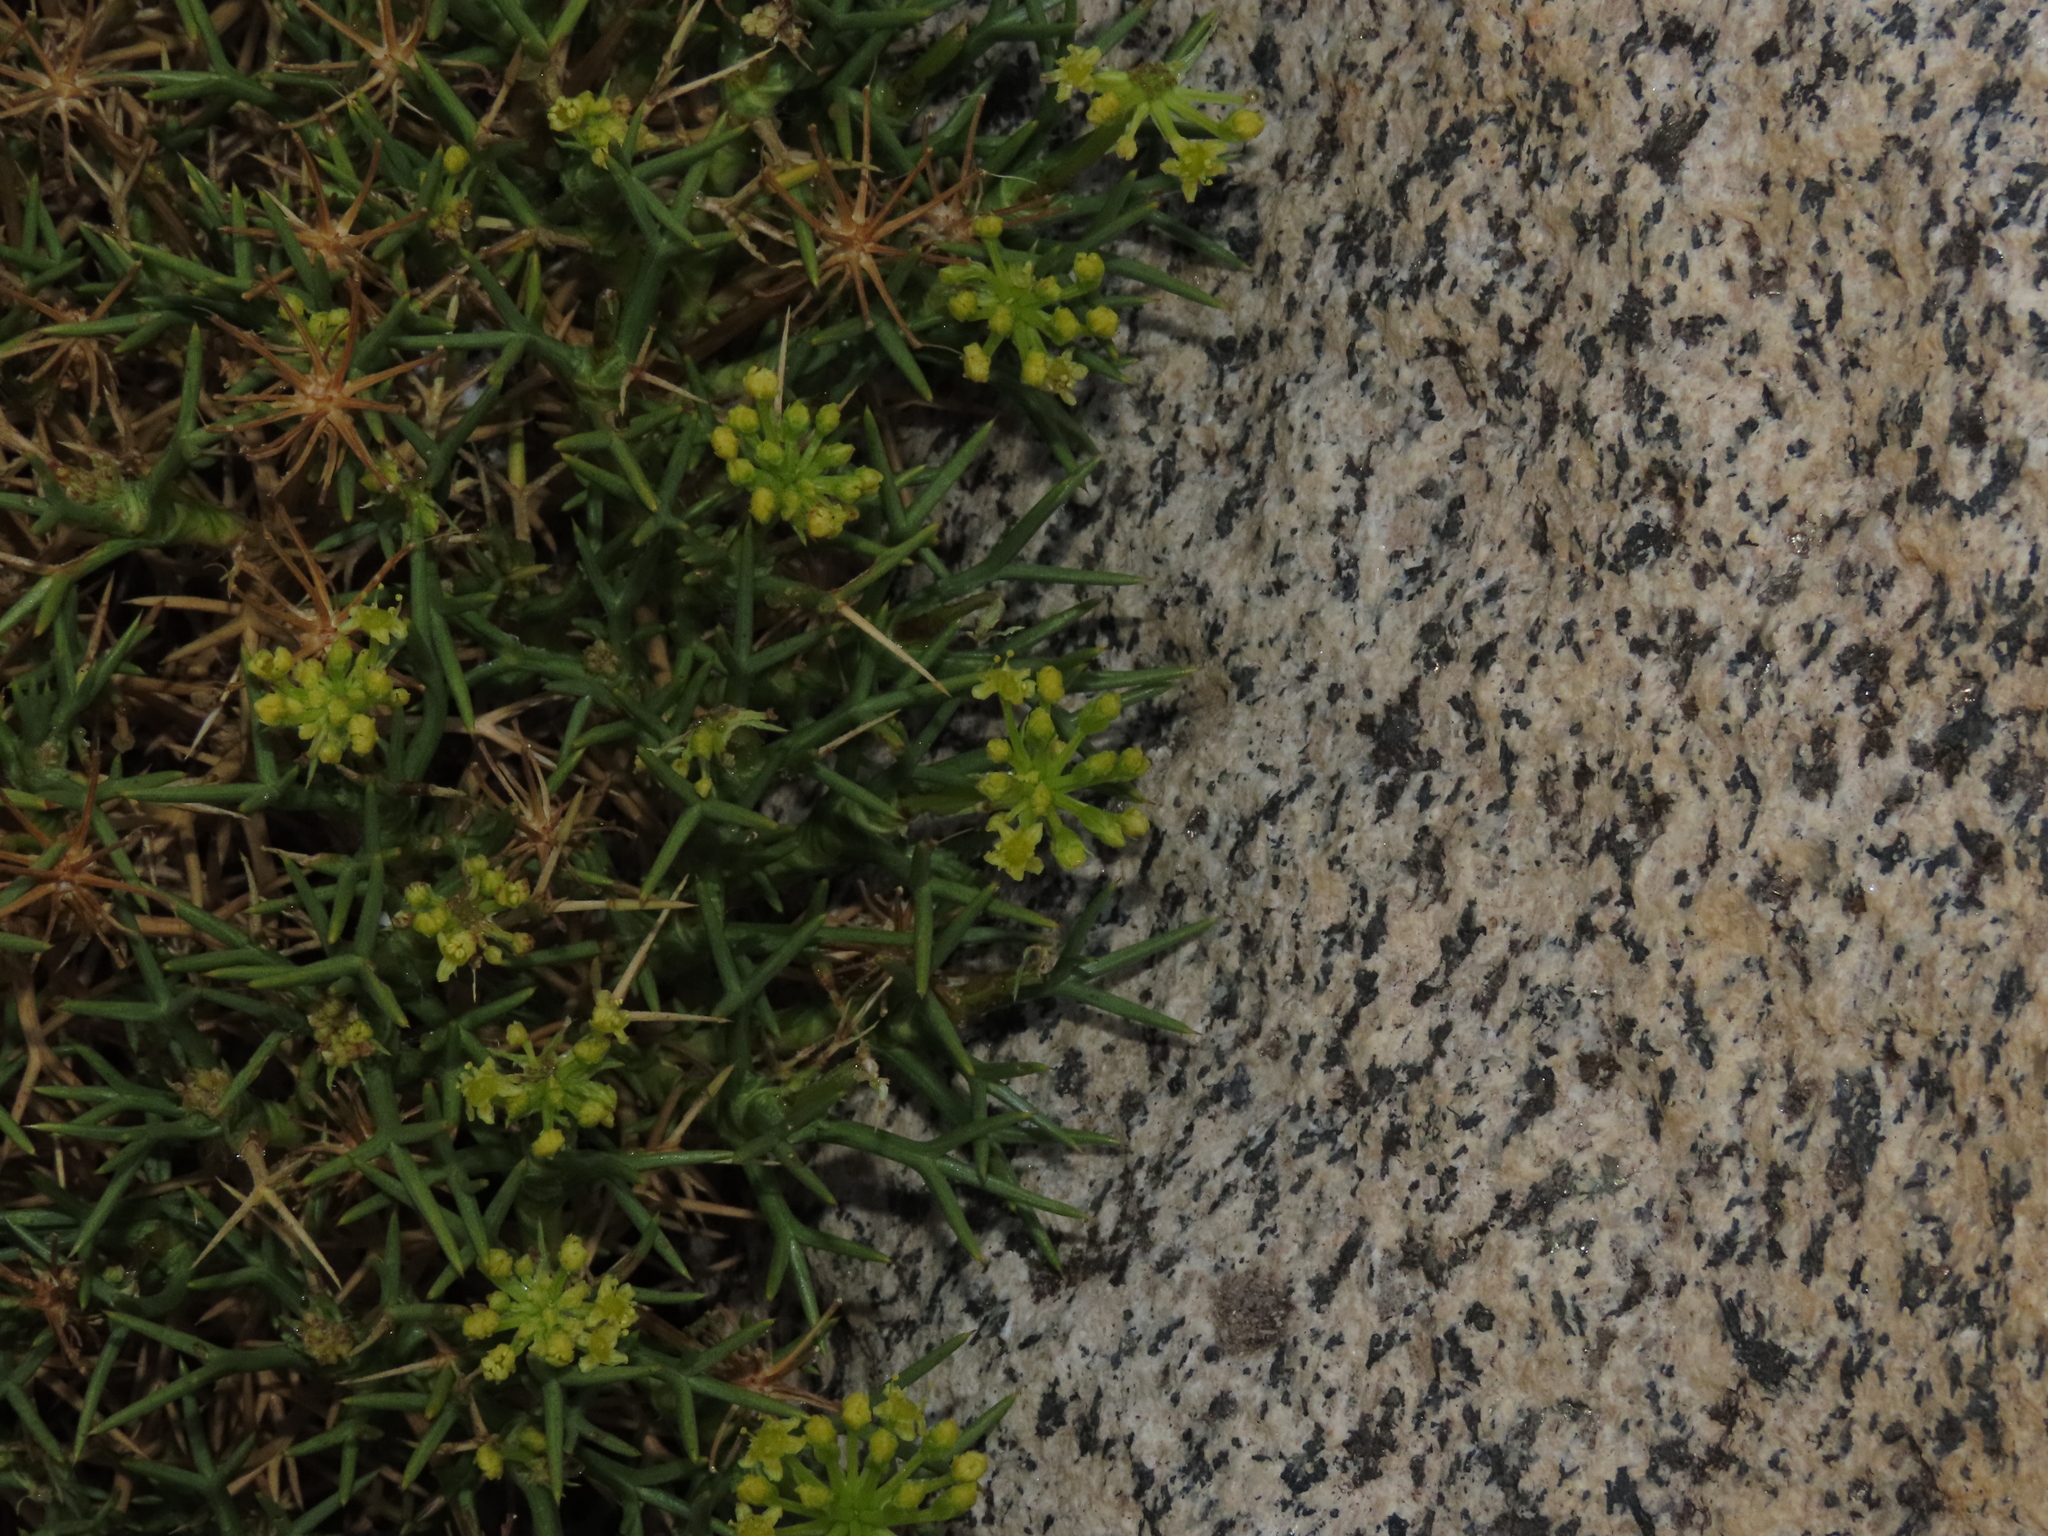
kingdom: Plantae
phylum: Tracheophyta
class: Magnoliopsida
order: Apiales
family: Apiaceae
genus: Azorella
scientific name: Azorella prolifera
